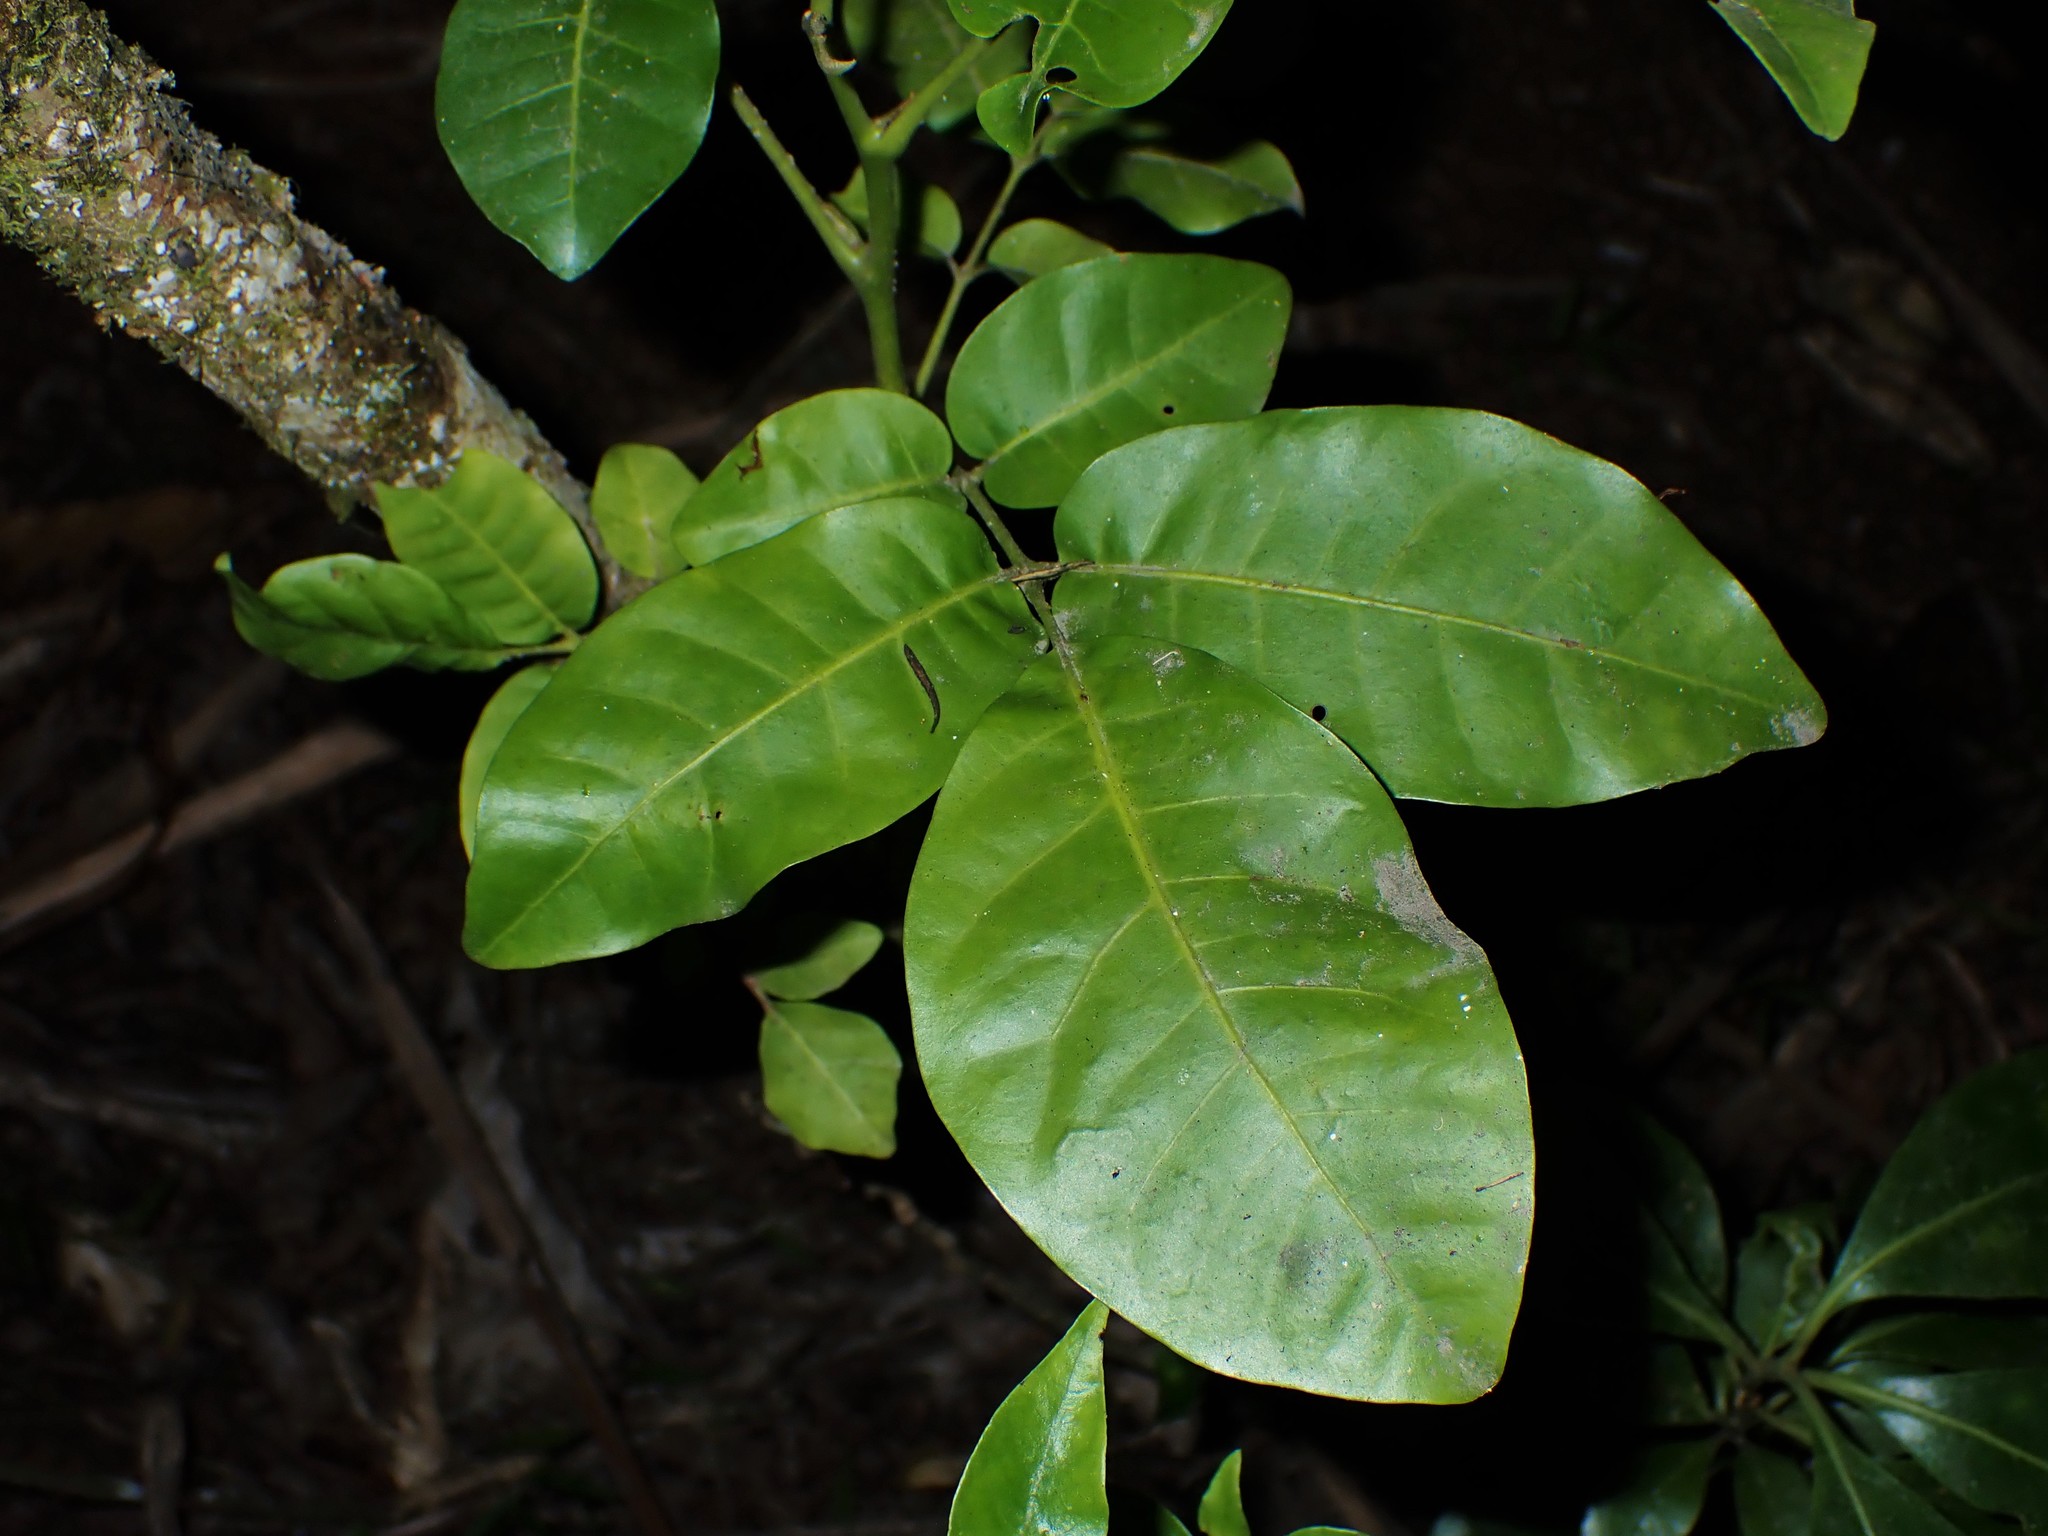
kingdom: Plantae
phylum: Tracheophyta
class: Magnoliopsida
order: Sapindales
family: Meliaceae
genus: Didymocheton
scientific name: Didymocheton spectabilis
